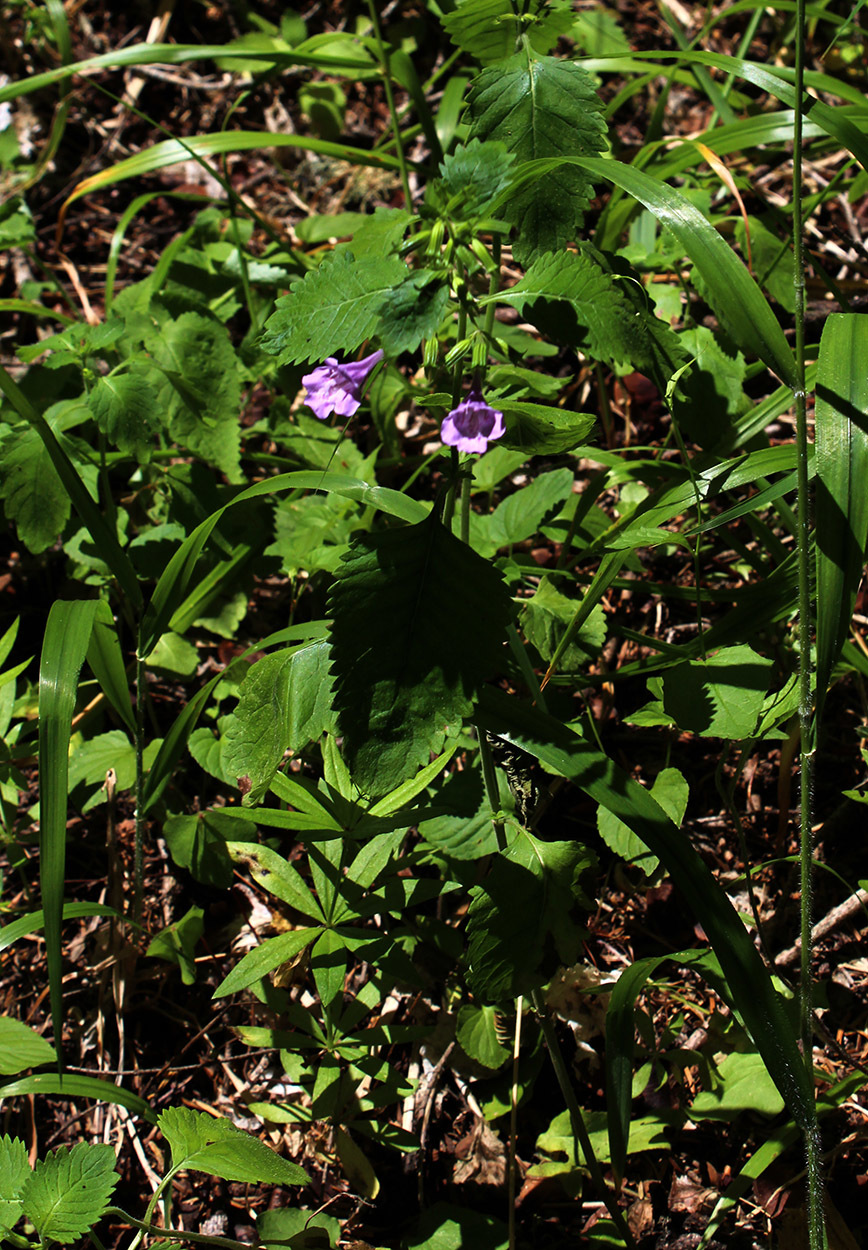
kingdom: Plantae
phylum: Tracheophyta
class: Magnoliopsida
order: Lamiales
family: Lamiaceae
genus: Clinopodium
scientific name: Clinopodium grandiflorum
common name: Greater calamint
